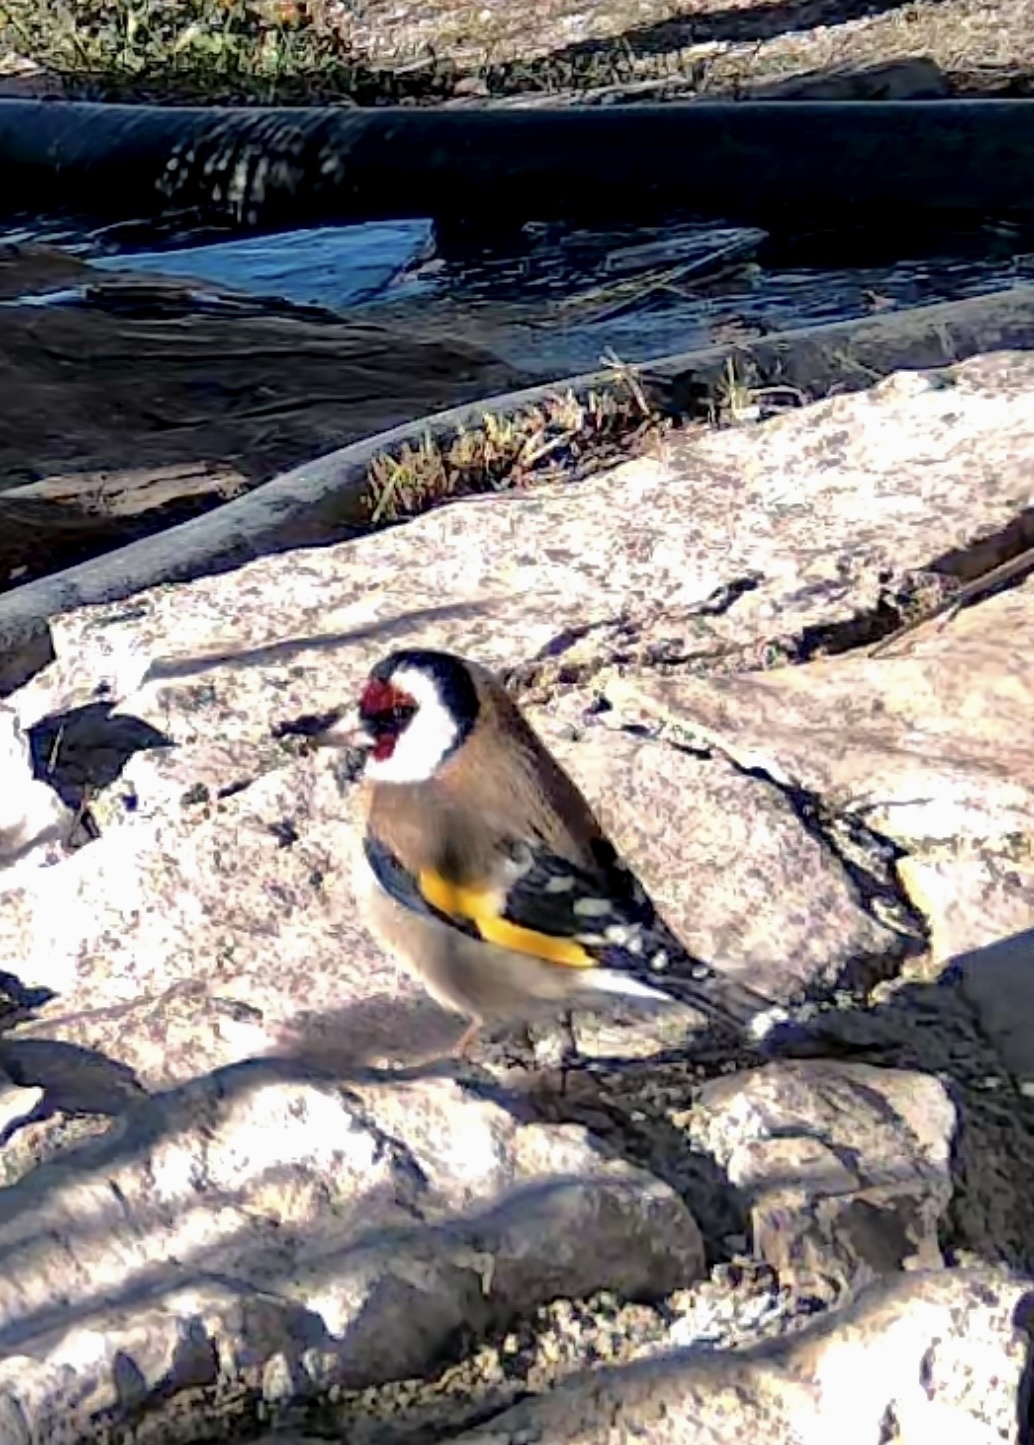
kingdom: Animalia
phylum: Chordata
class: Aves
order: Passeriformes
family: Fringillidae
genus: Carduelis
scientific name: Carduelis carduelis
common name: European goldfinch
